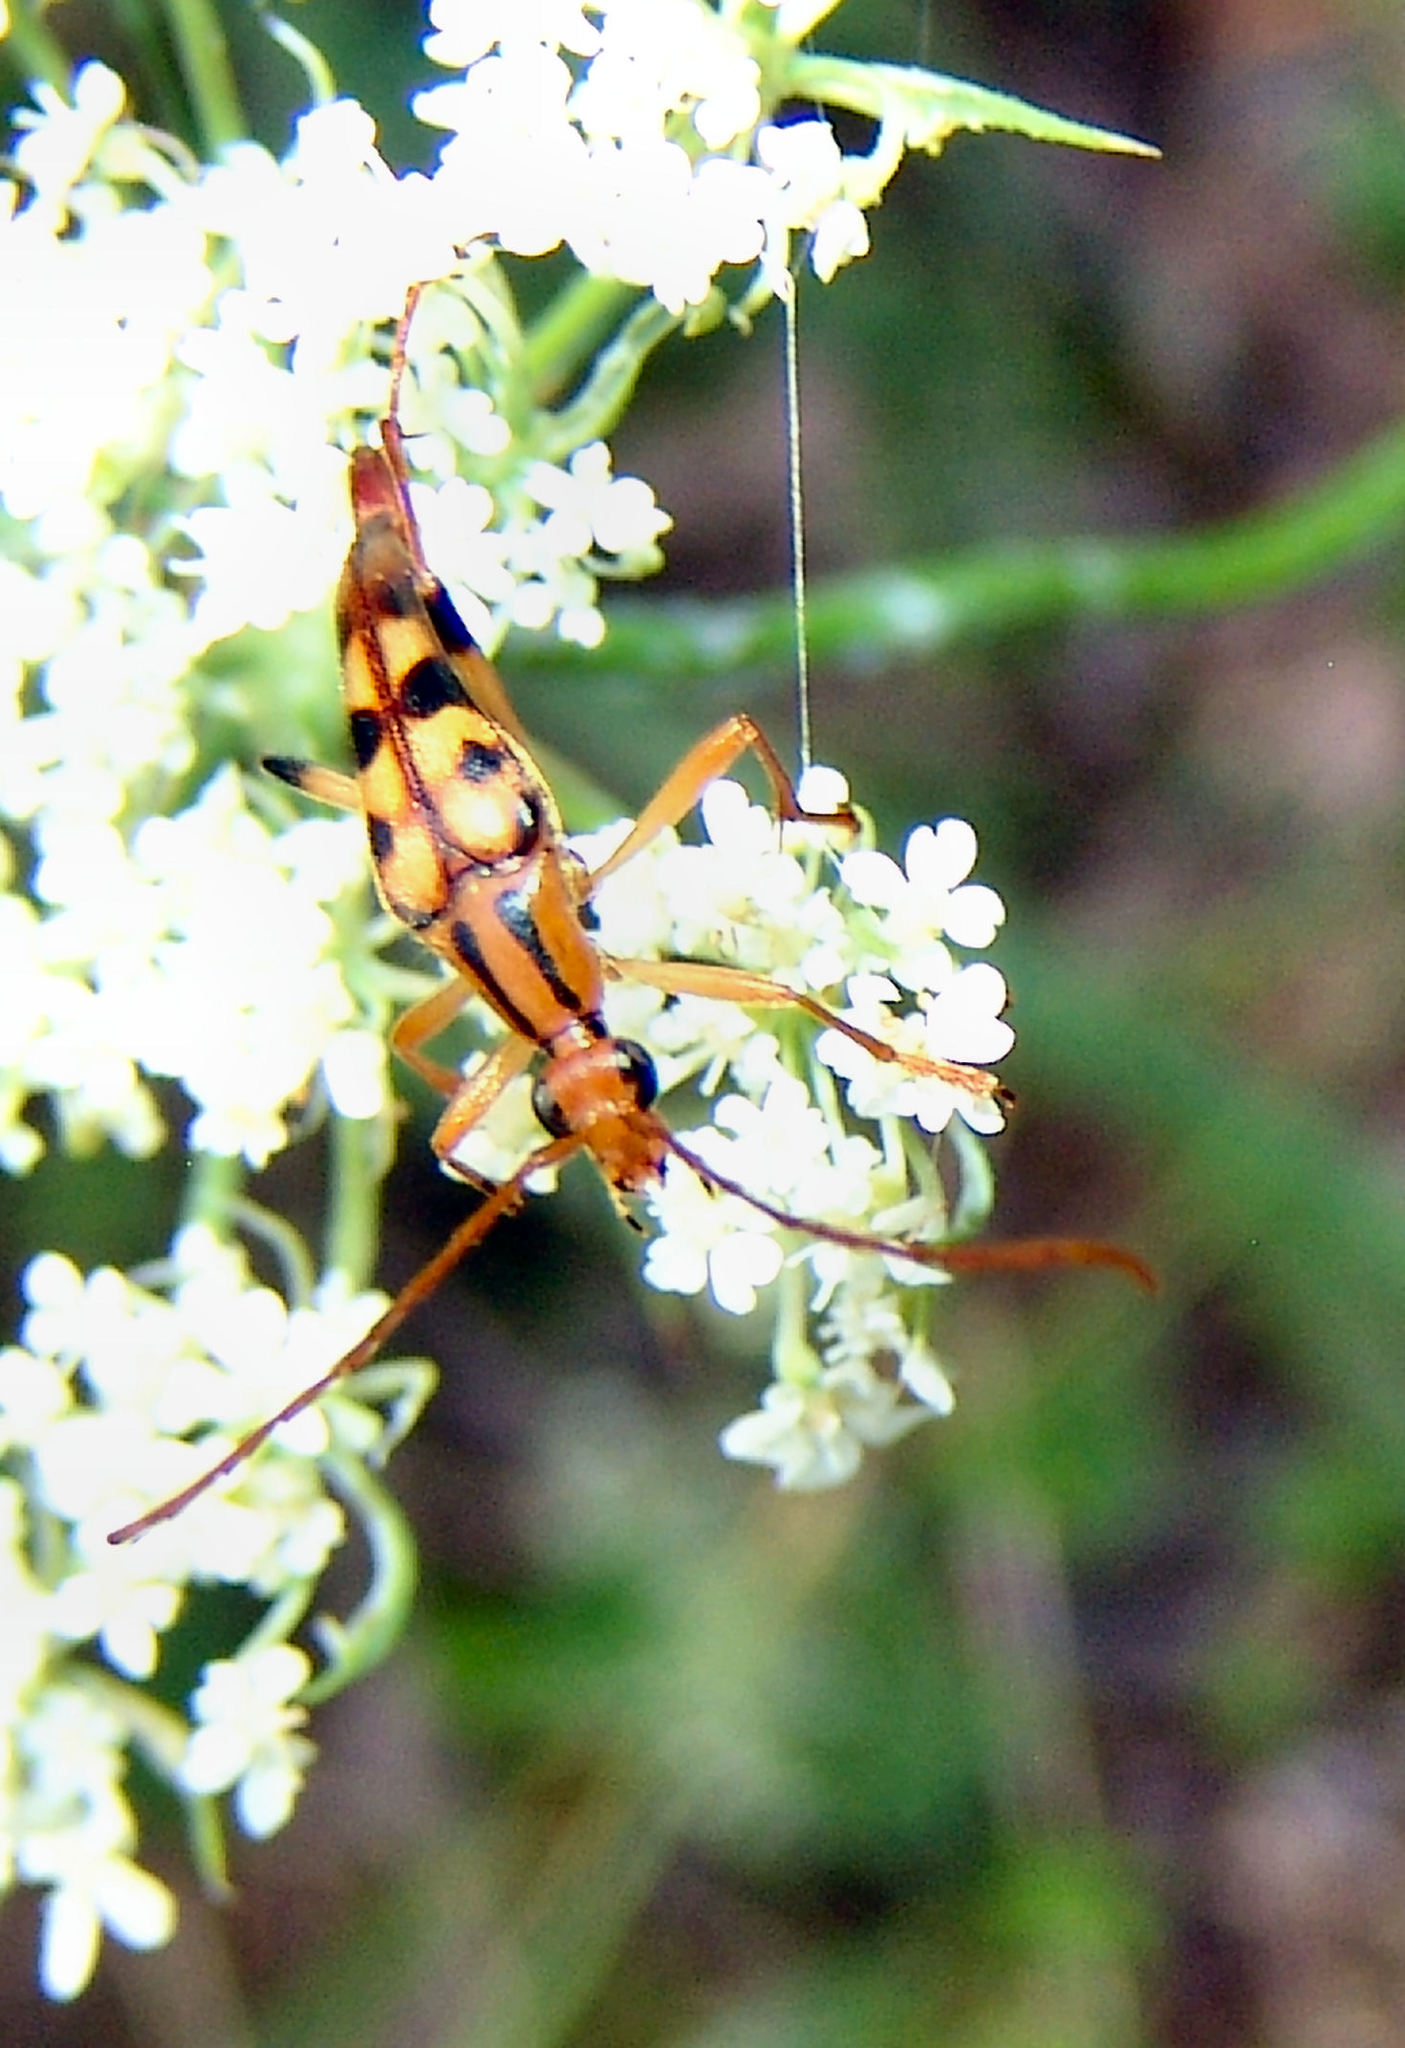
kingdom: Animalia
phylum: Arthropoda
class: Insecta
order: Coleoptera
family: Cerambycidae
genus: Strangalia
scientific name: Strangalia luteicornis
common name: Yellow-horned flower longhorn beetle
